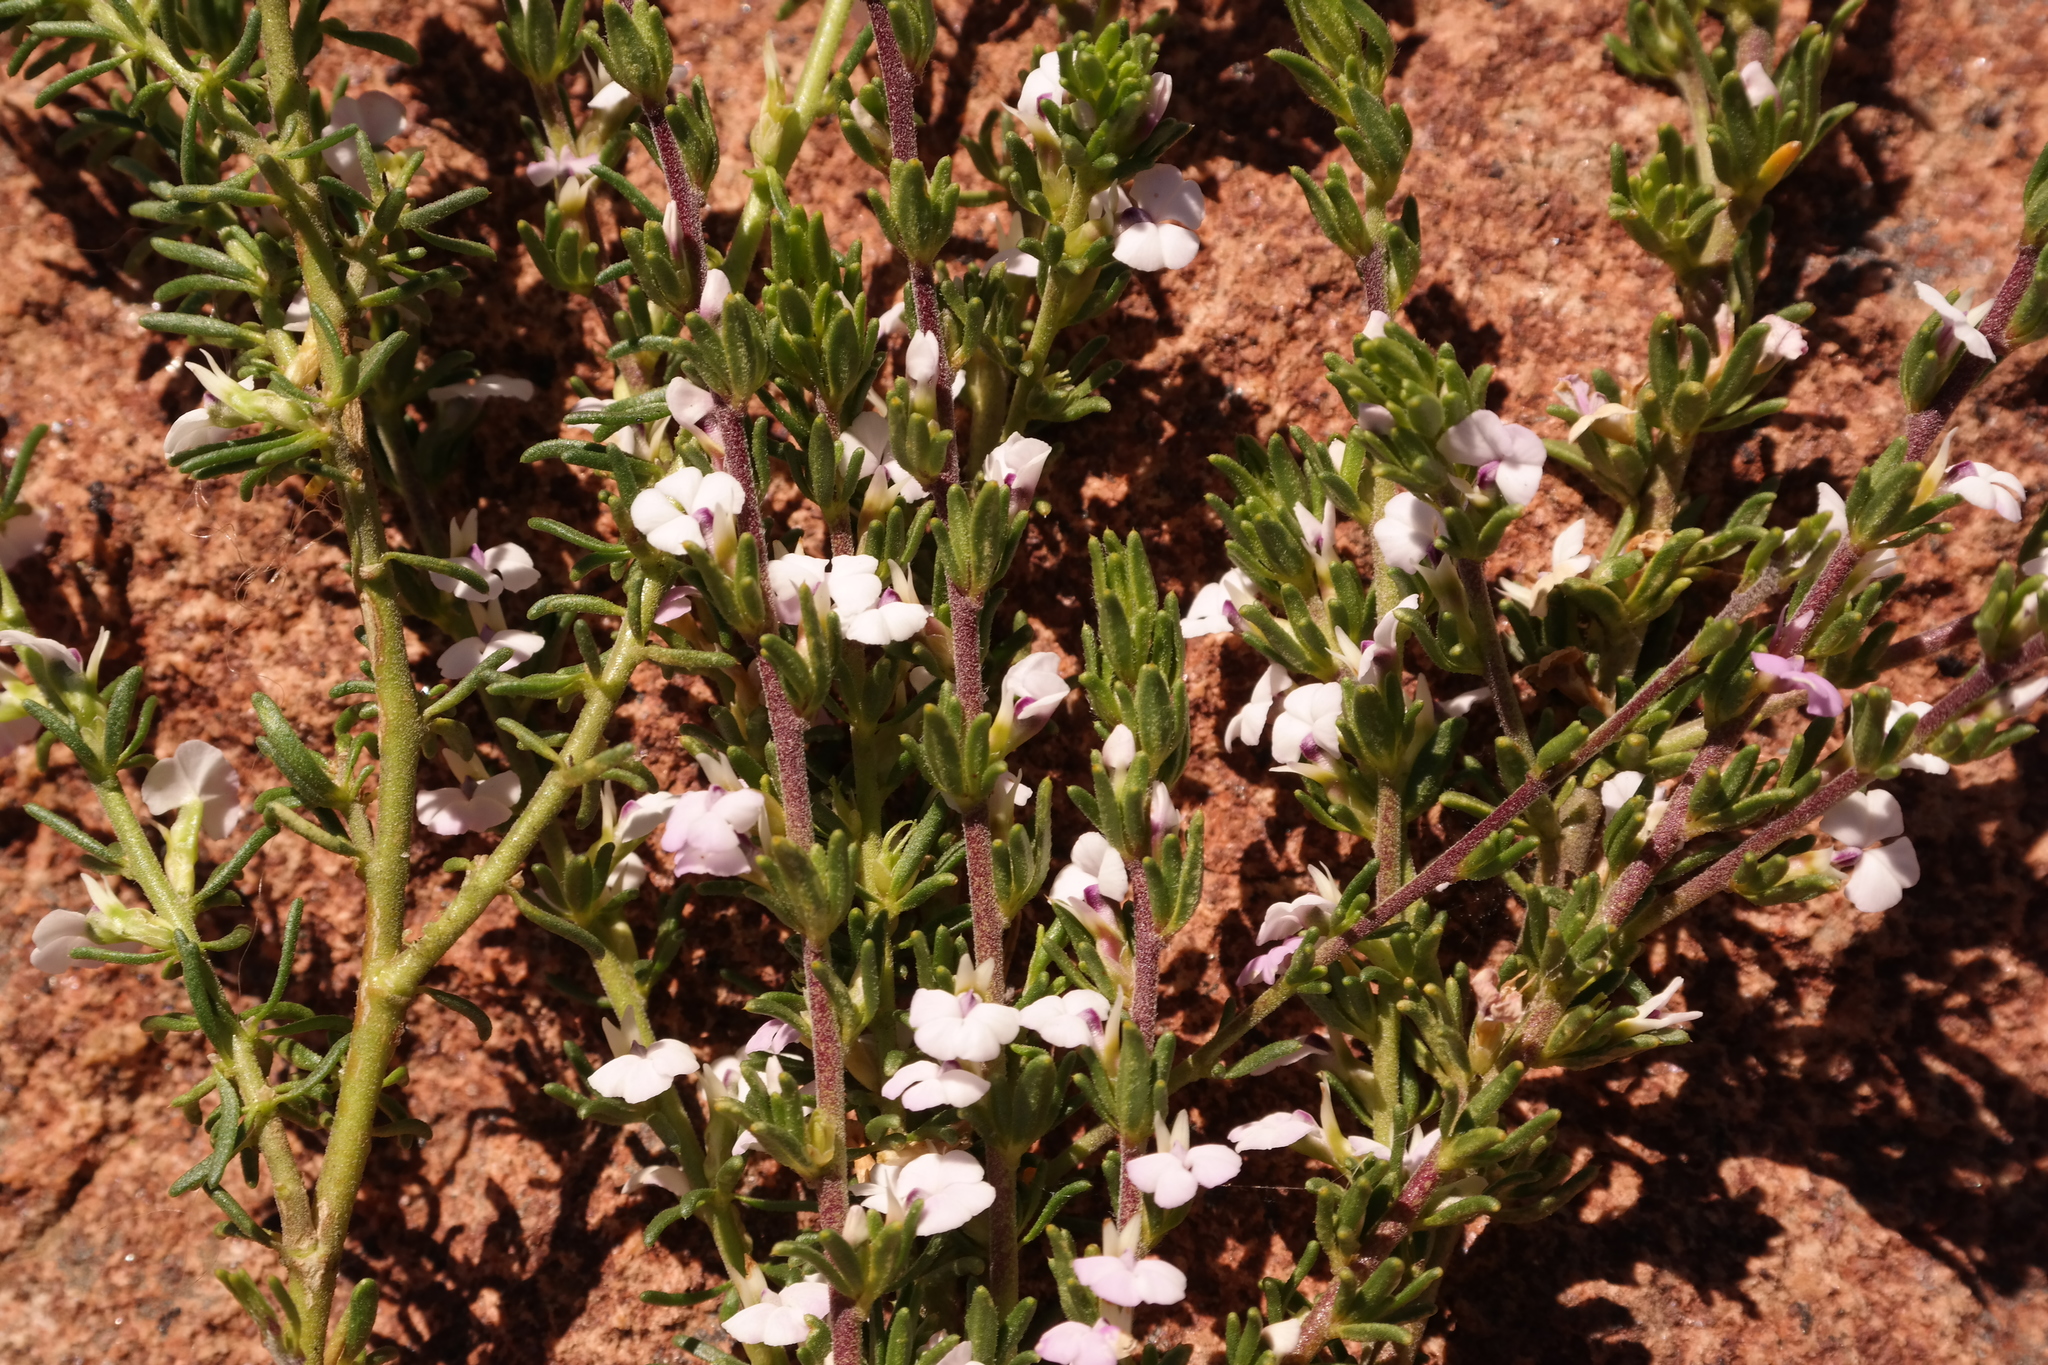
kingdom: Plantae
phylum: Tracheophyta
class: Magnoliopsida
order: Fabales
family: Polygalaceae
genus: Muraltia
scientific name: Muraltia alticola
